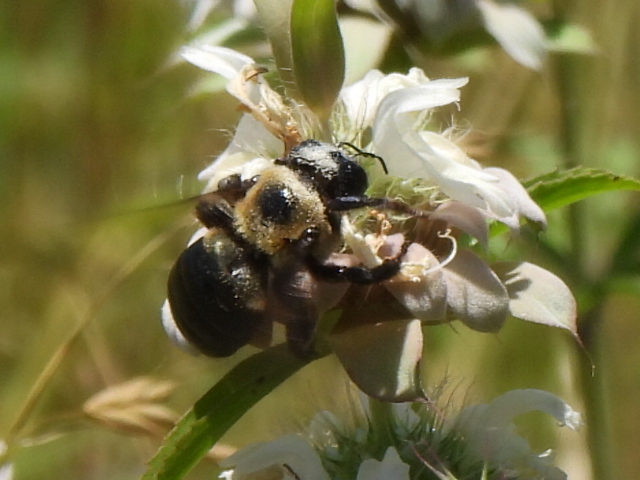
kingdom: Animalia
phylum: Arthropoda
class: Insecta
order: Hymenoptera
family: Apidae
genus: Xylocopa
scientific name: Xylocopa virginica
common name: Carpenter bee
